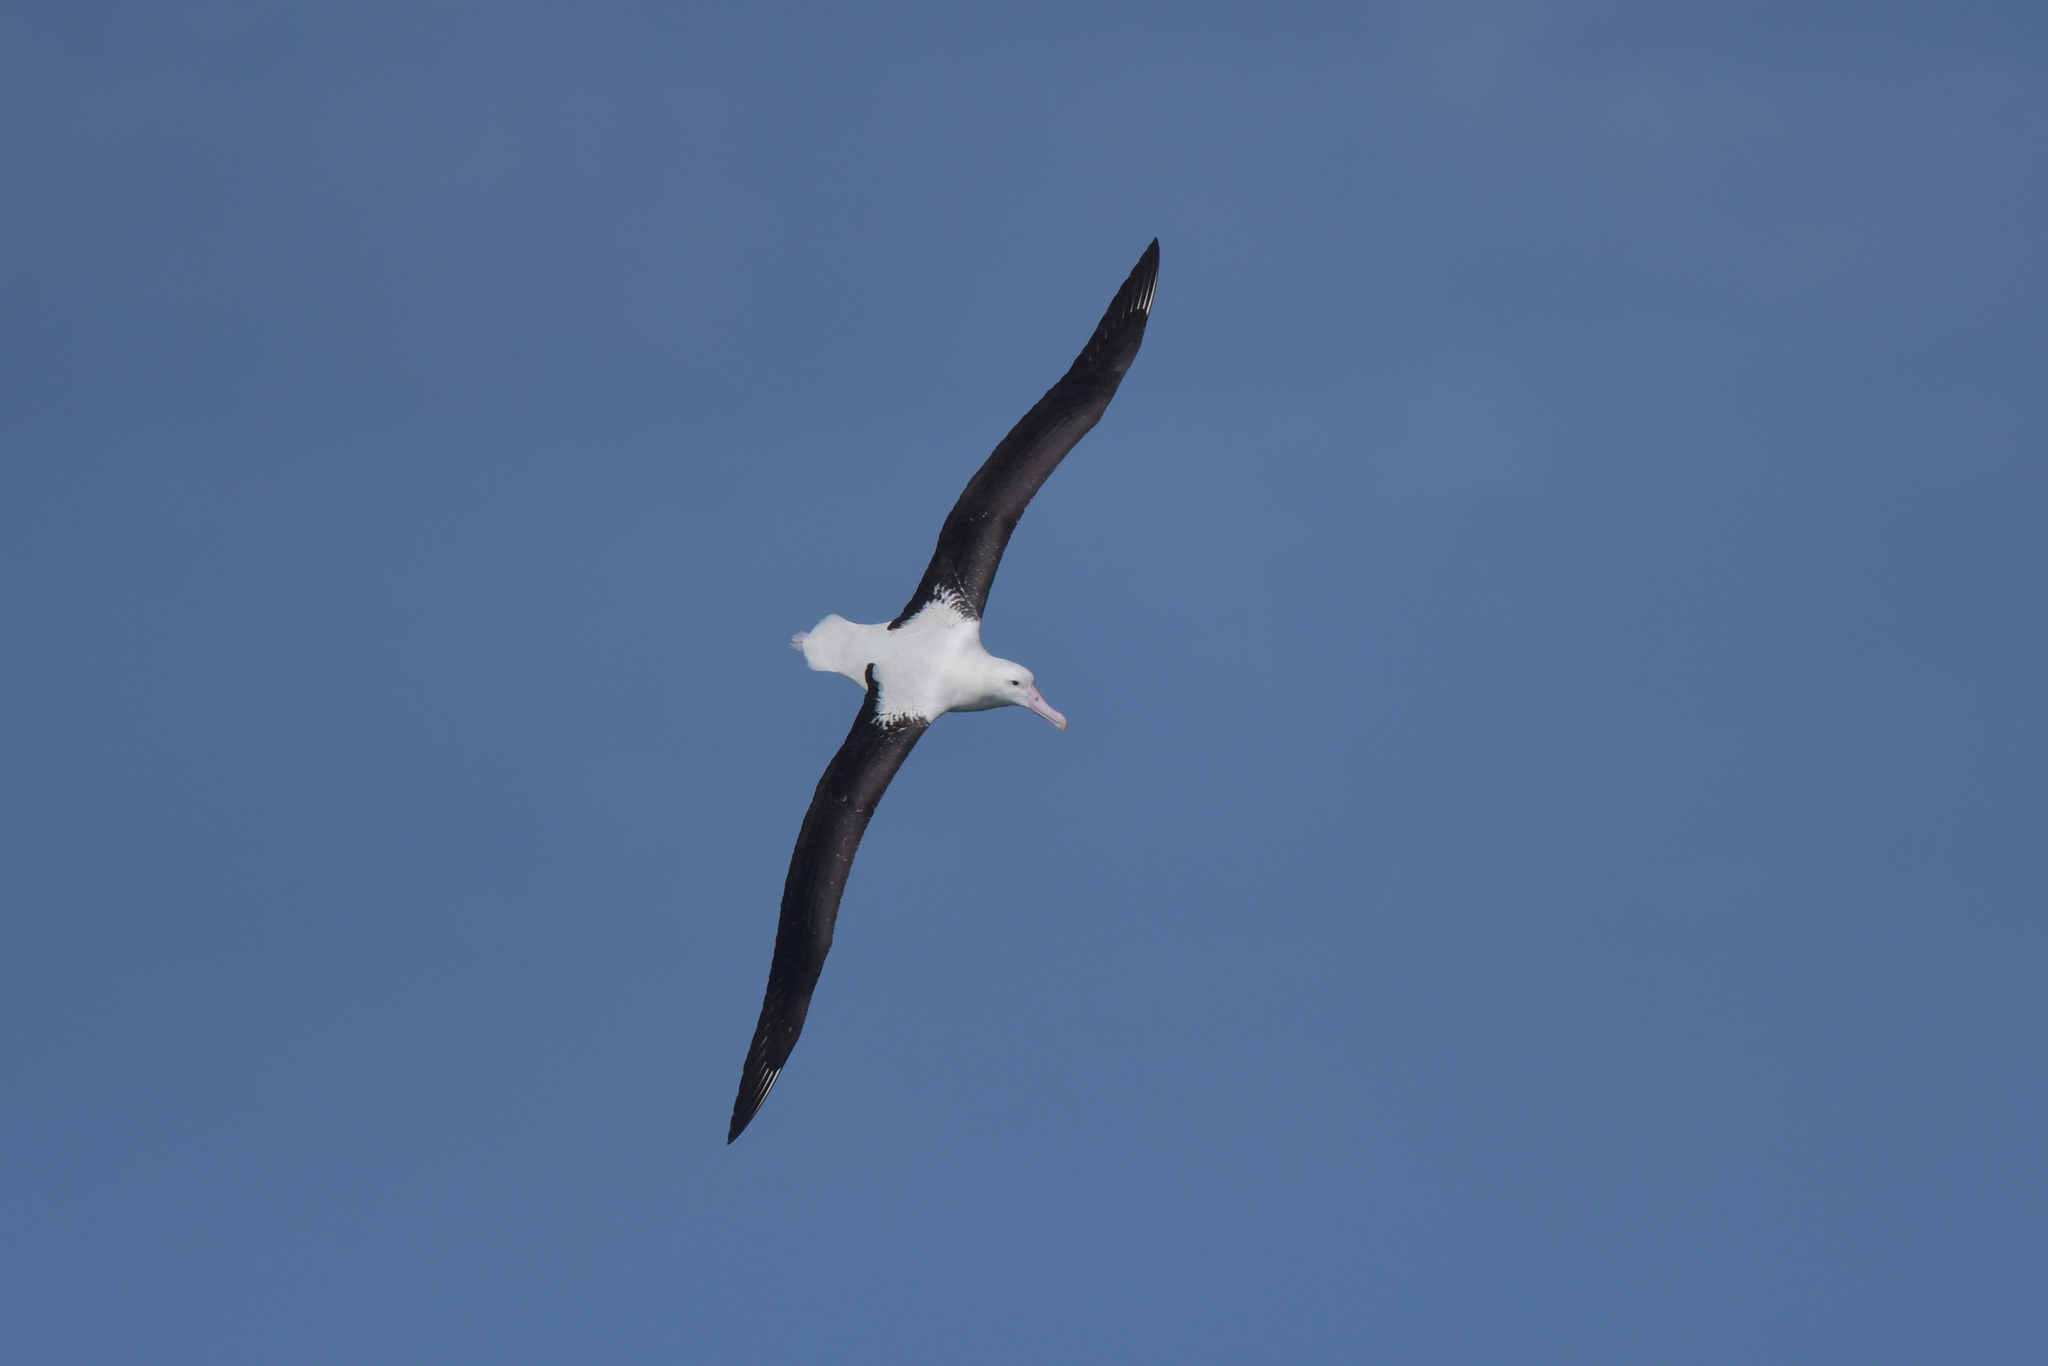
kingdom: Animalia
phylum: Chordata
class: Aves
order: Procellariiformes
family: Diomedeidae
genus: Diomedea
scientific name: Diomedea sanfordi
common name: Northern royal albatross
